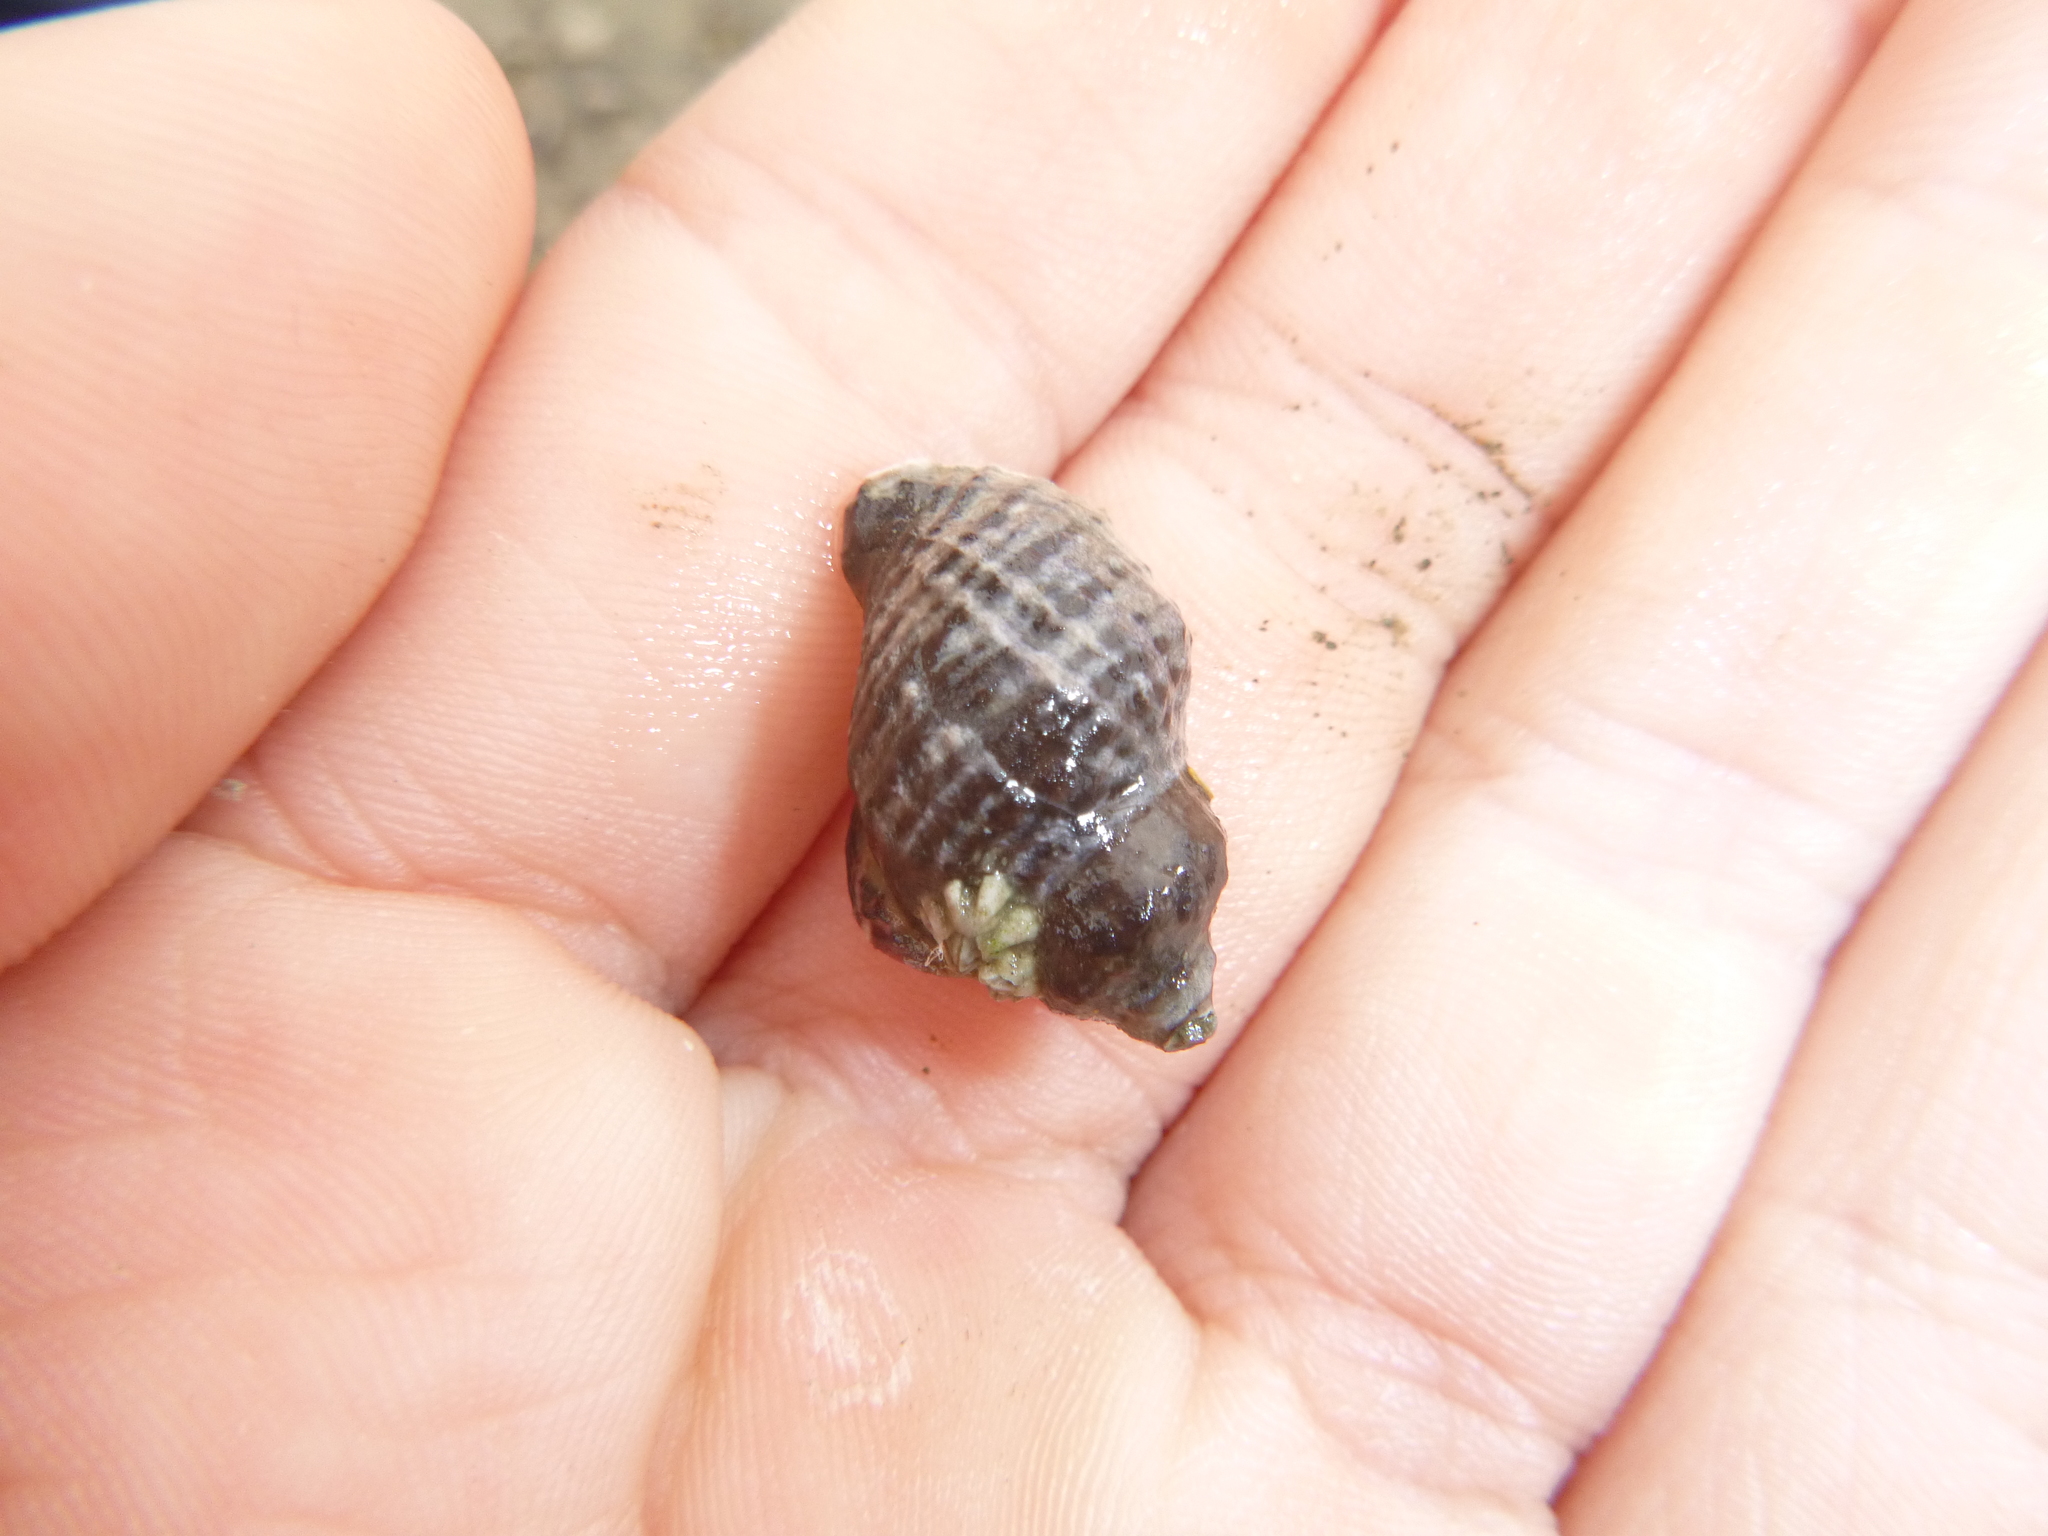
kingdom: Animalia
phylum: Mollusca
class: Gastropoda
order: Neogastropoda
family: Muricidae
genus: Haustrum
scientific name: Haustrum albomarginatum
